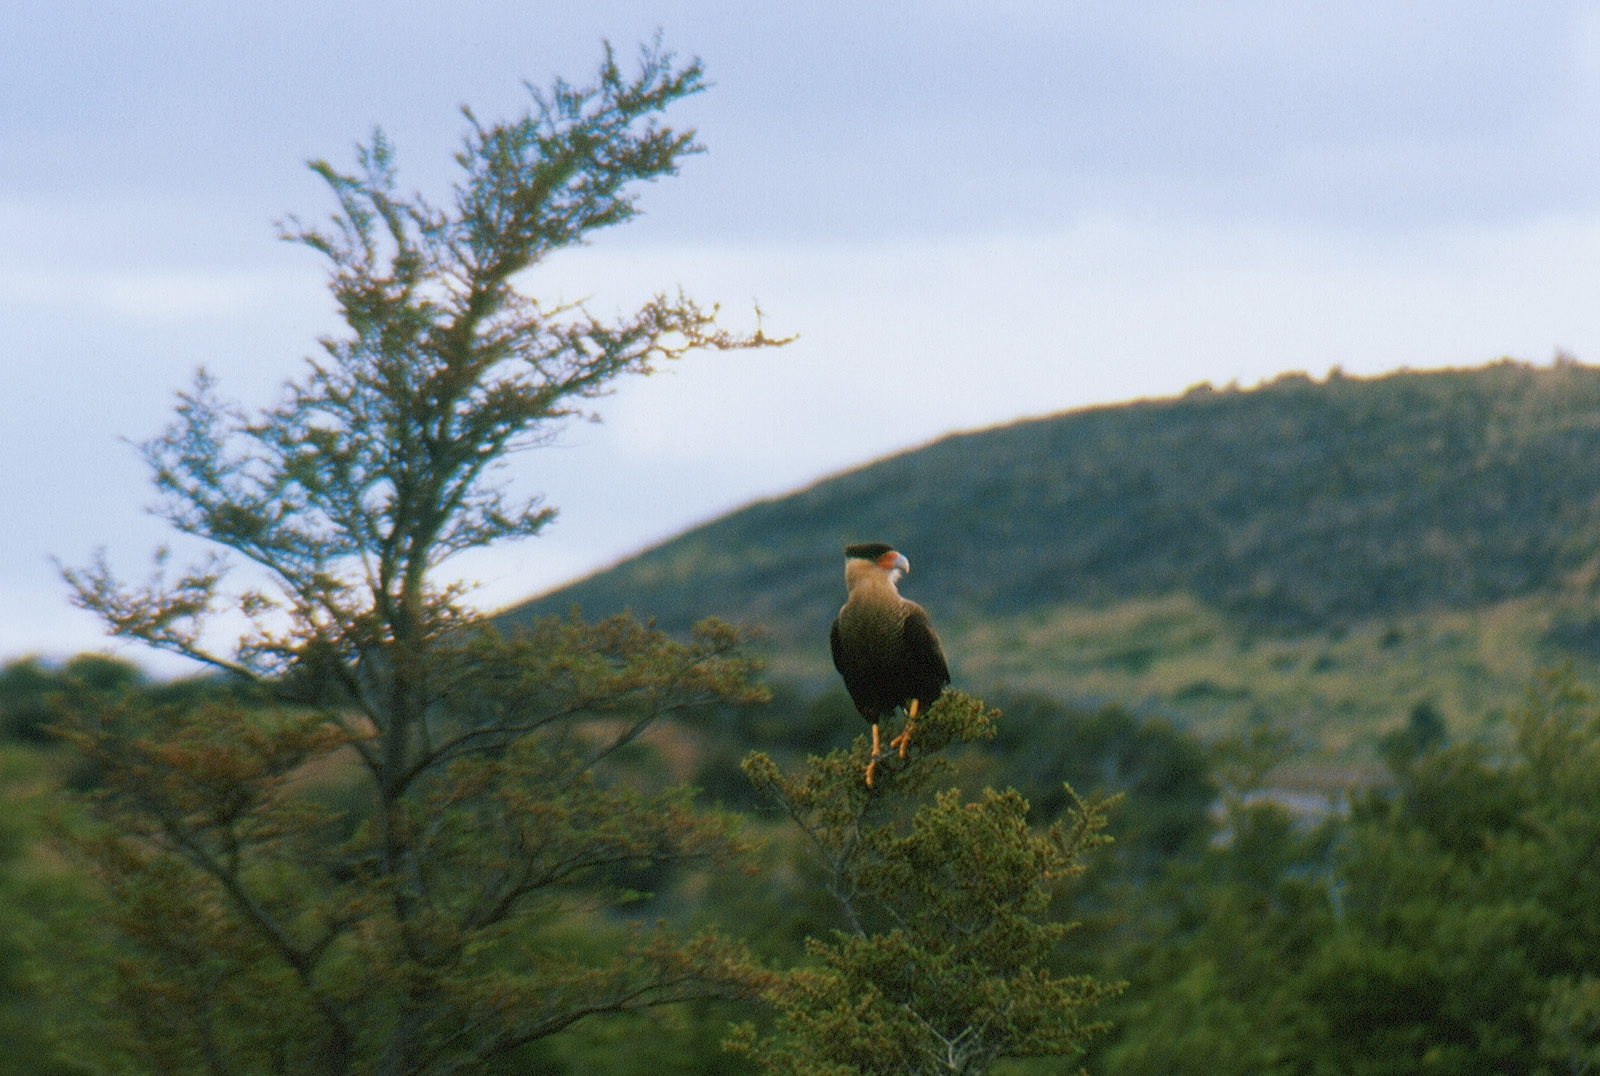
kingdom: Animalia
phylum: Chordata
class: Aves
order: Falconiformes
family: Falconidae
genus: Caracara
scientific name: Caracara plancus
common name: Southern caracara
